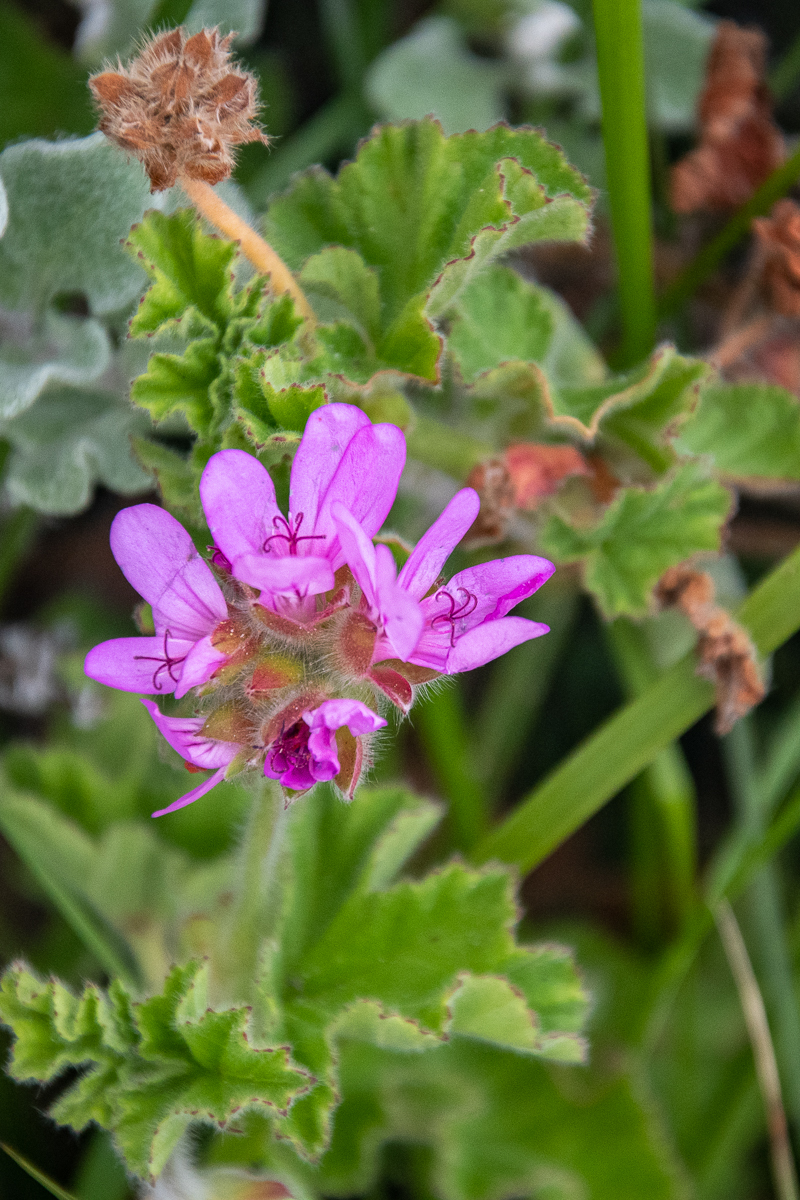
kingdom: Plantae
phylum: Tracheophyta
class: Magnoliopsida
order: Geraniales
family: Geraniaceae
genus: Pelargonium
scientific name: Pelargonium capitatum
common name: Rose scented geranium
